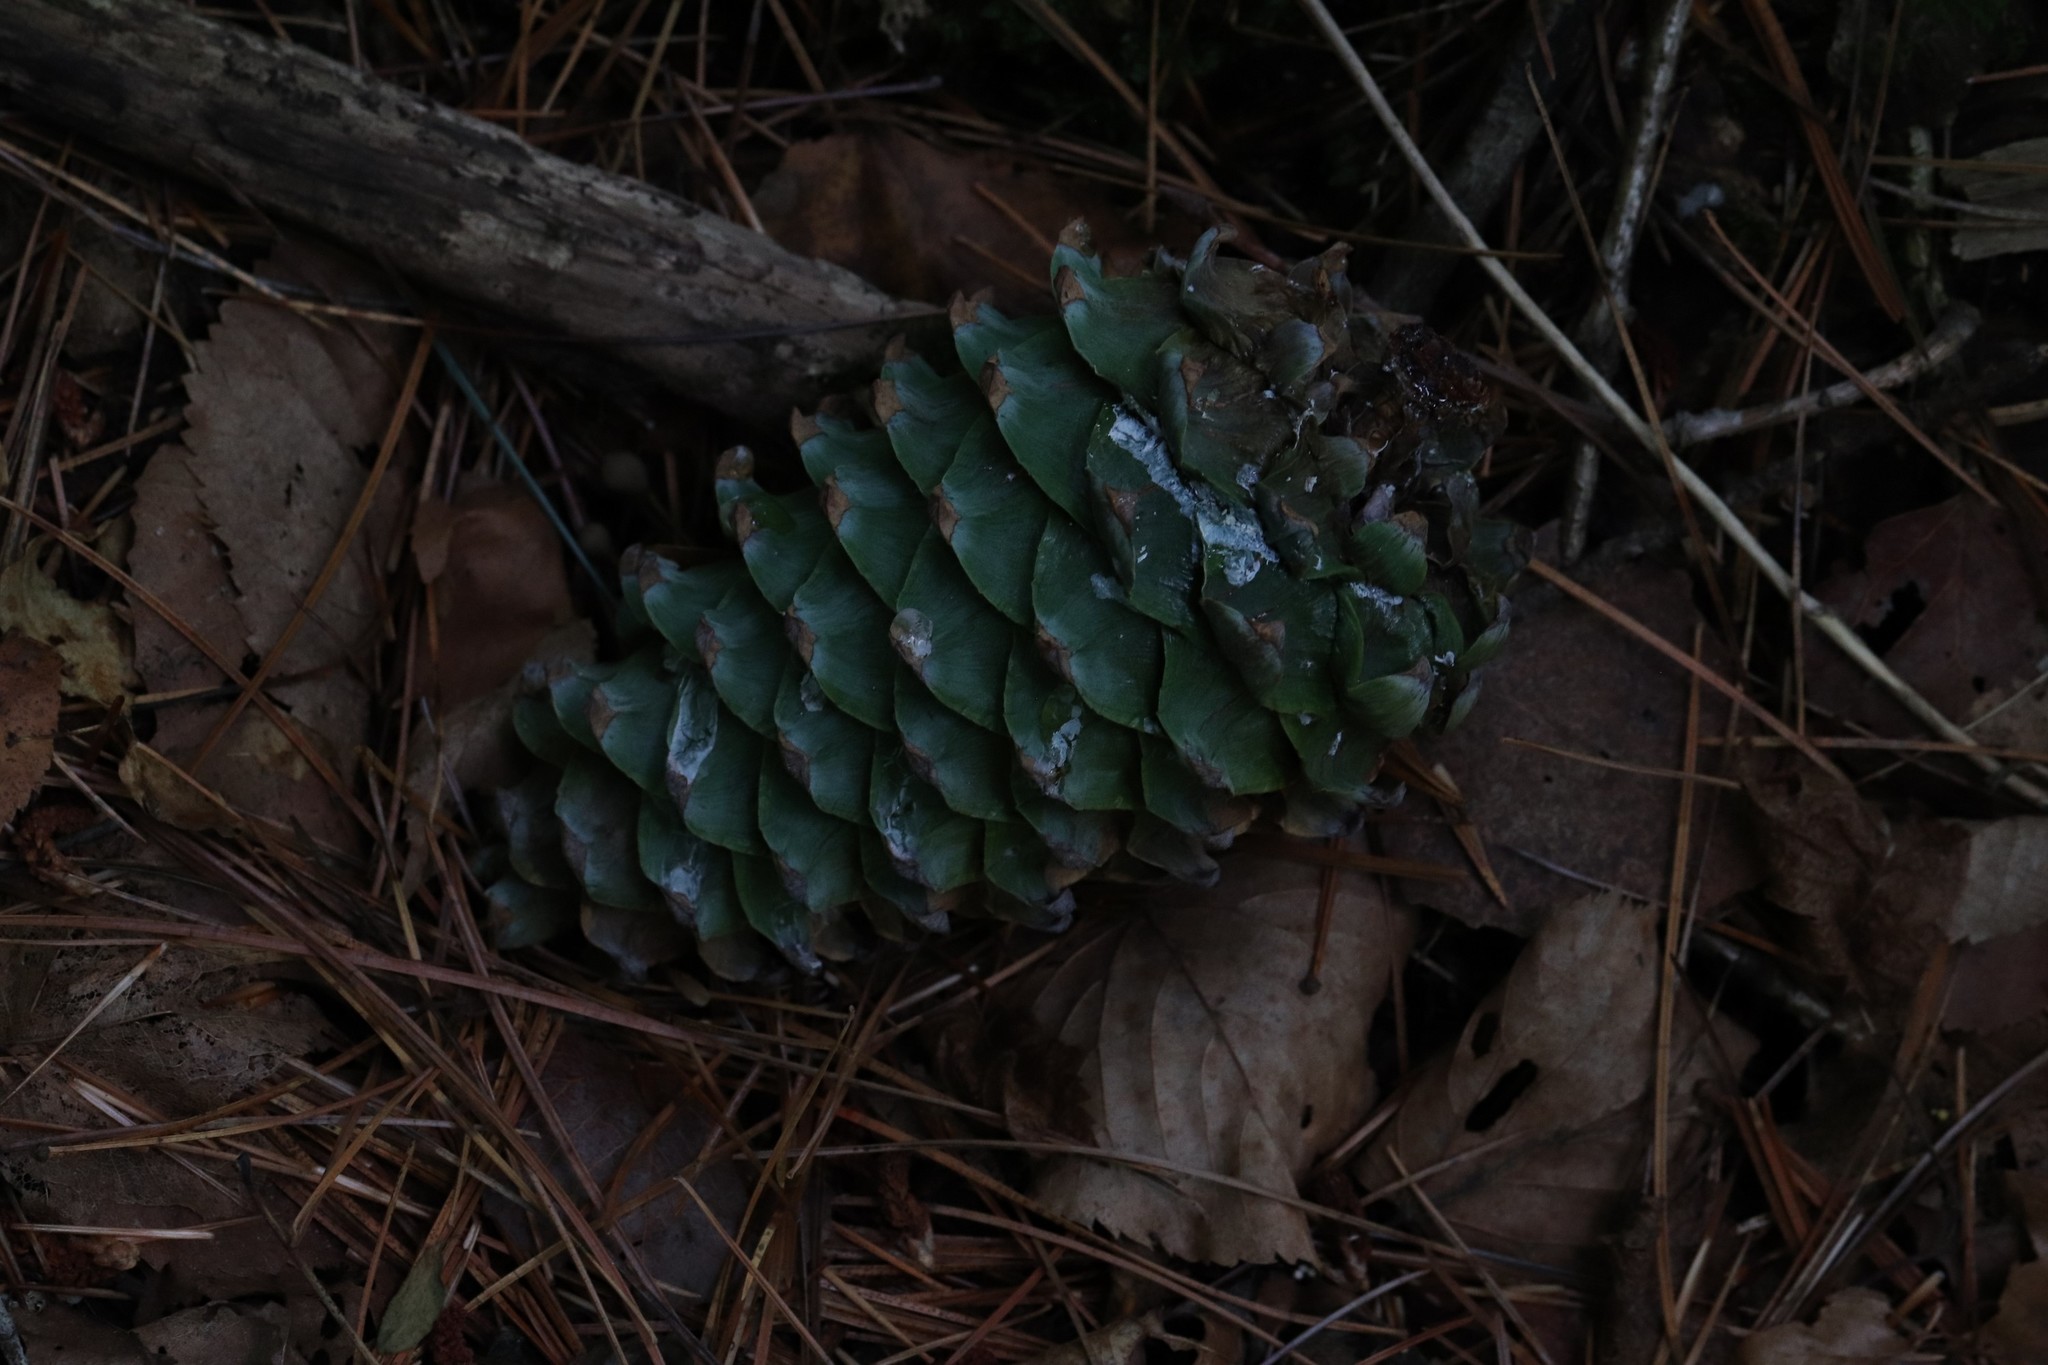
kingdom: Plantae
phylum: Tracheophyta
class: Pinopsida
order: Pinales
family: Pinaceae
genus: Pinus
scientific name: Pinus koraiensis
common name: Korean pine
